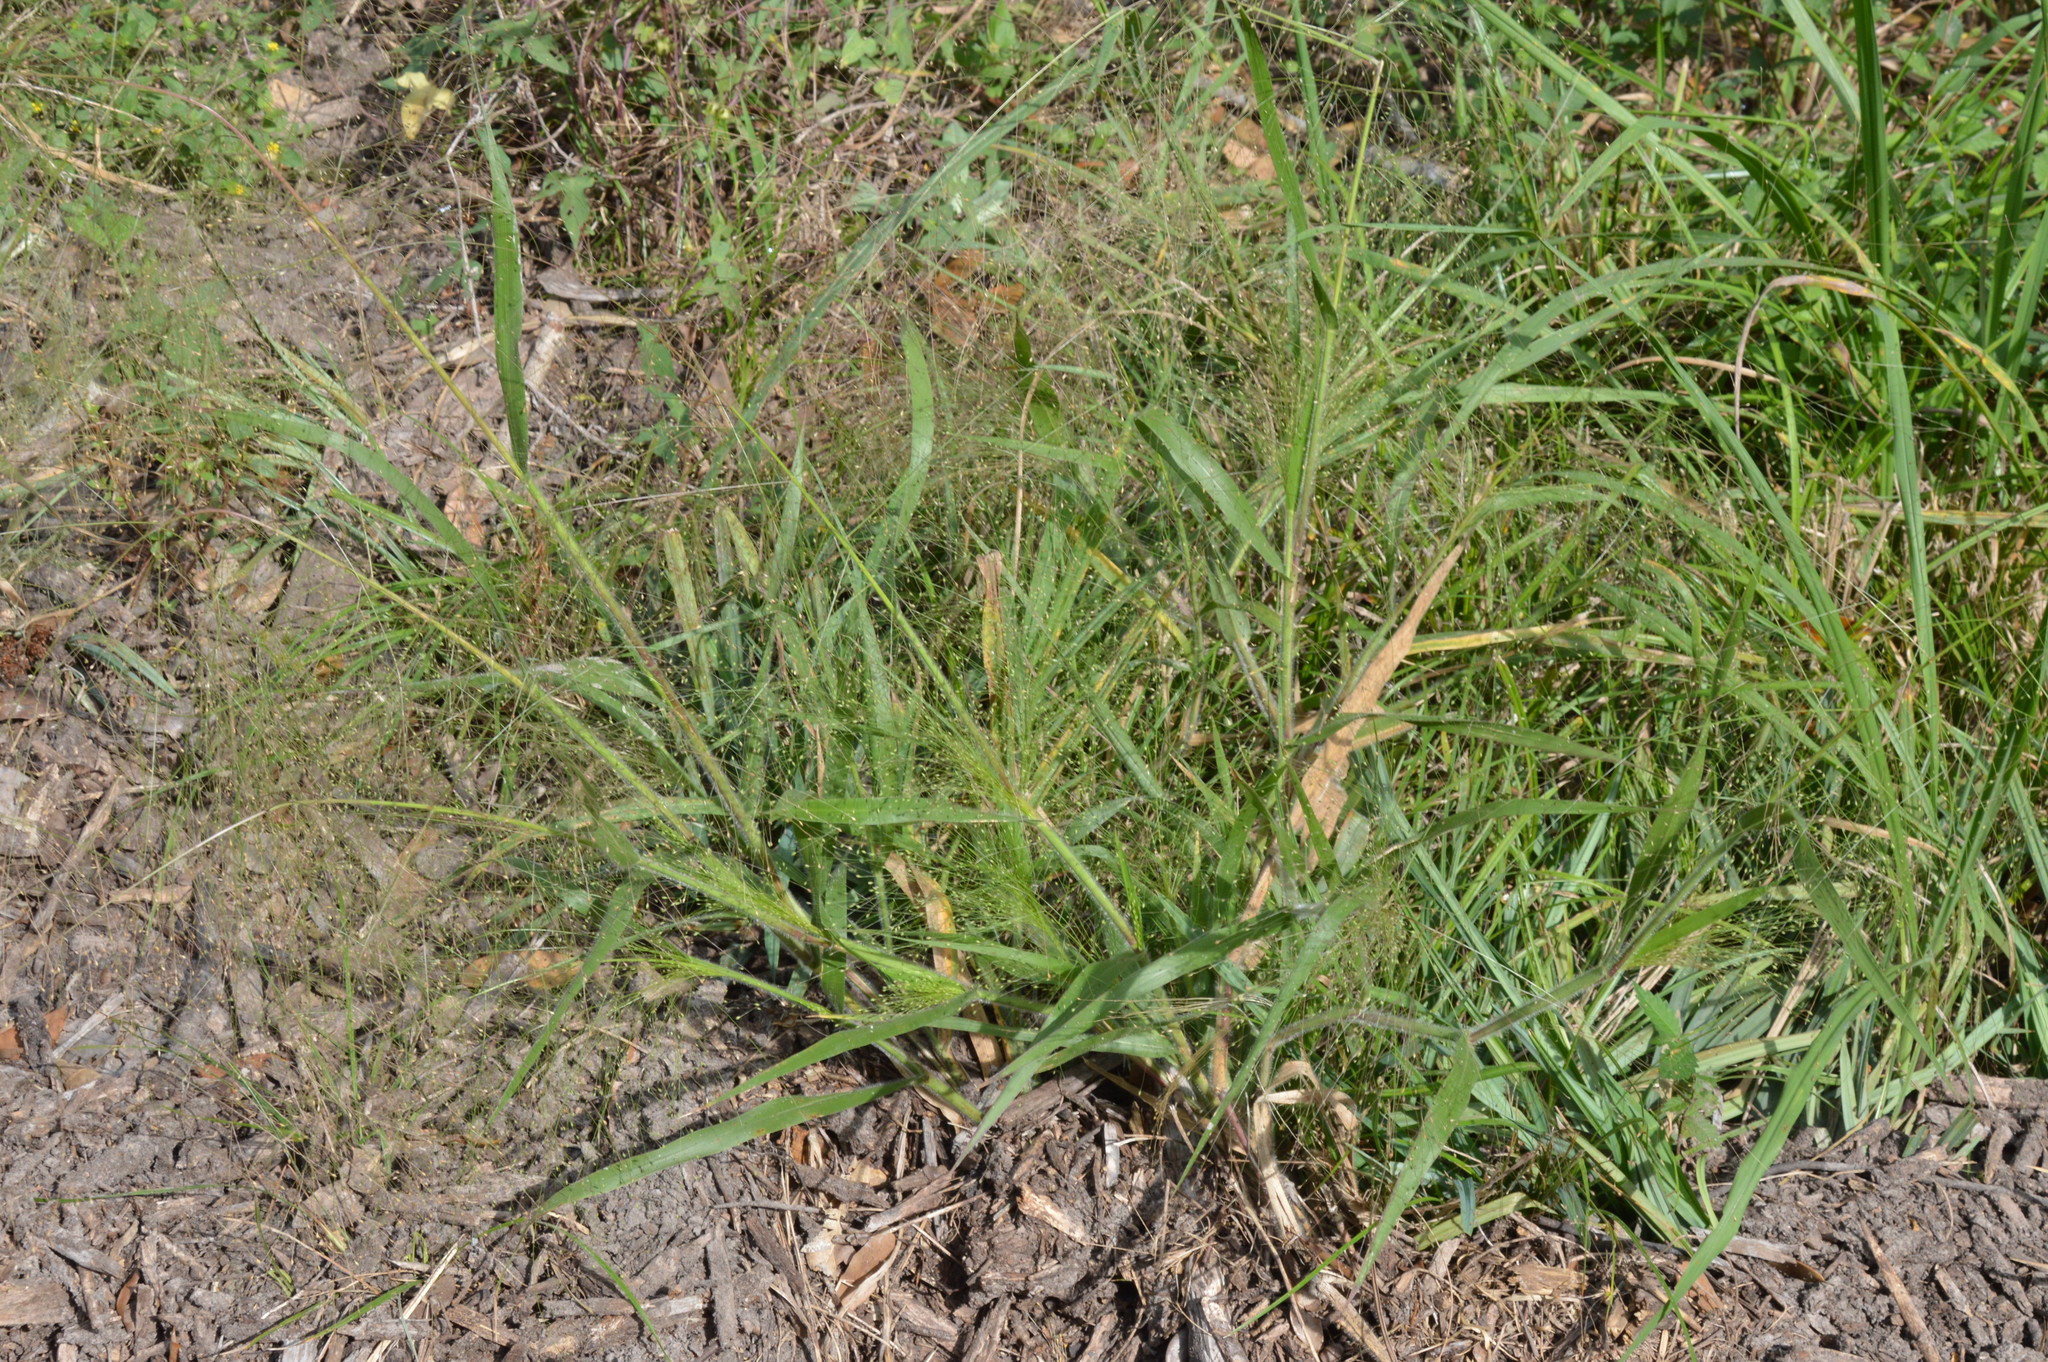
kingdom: Plantae
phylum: Tracheophyta
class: Liliopsida
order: Poales
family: Poaceae
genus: Panicum
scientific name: Panicum capillare
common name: Witch-grass
